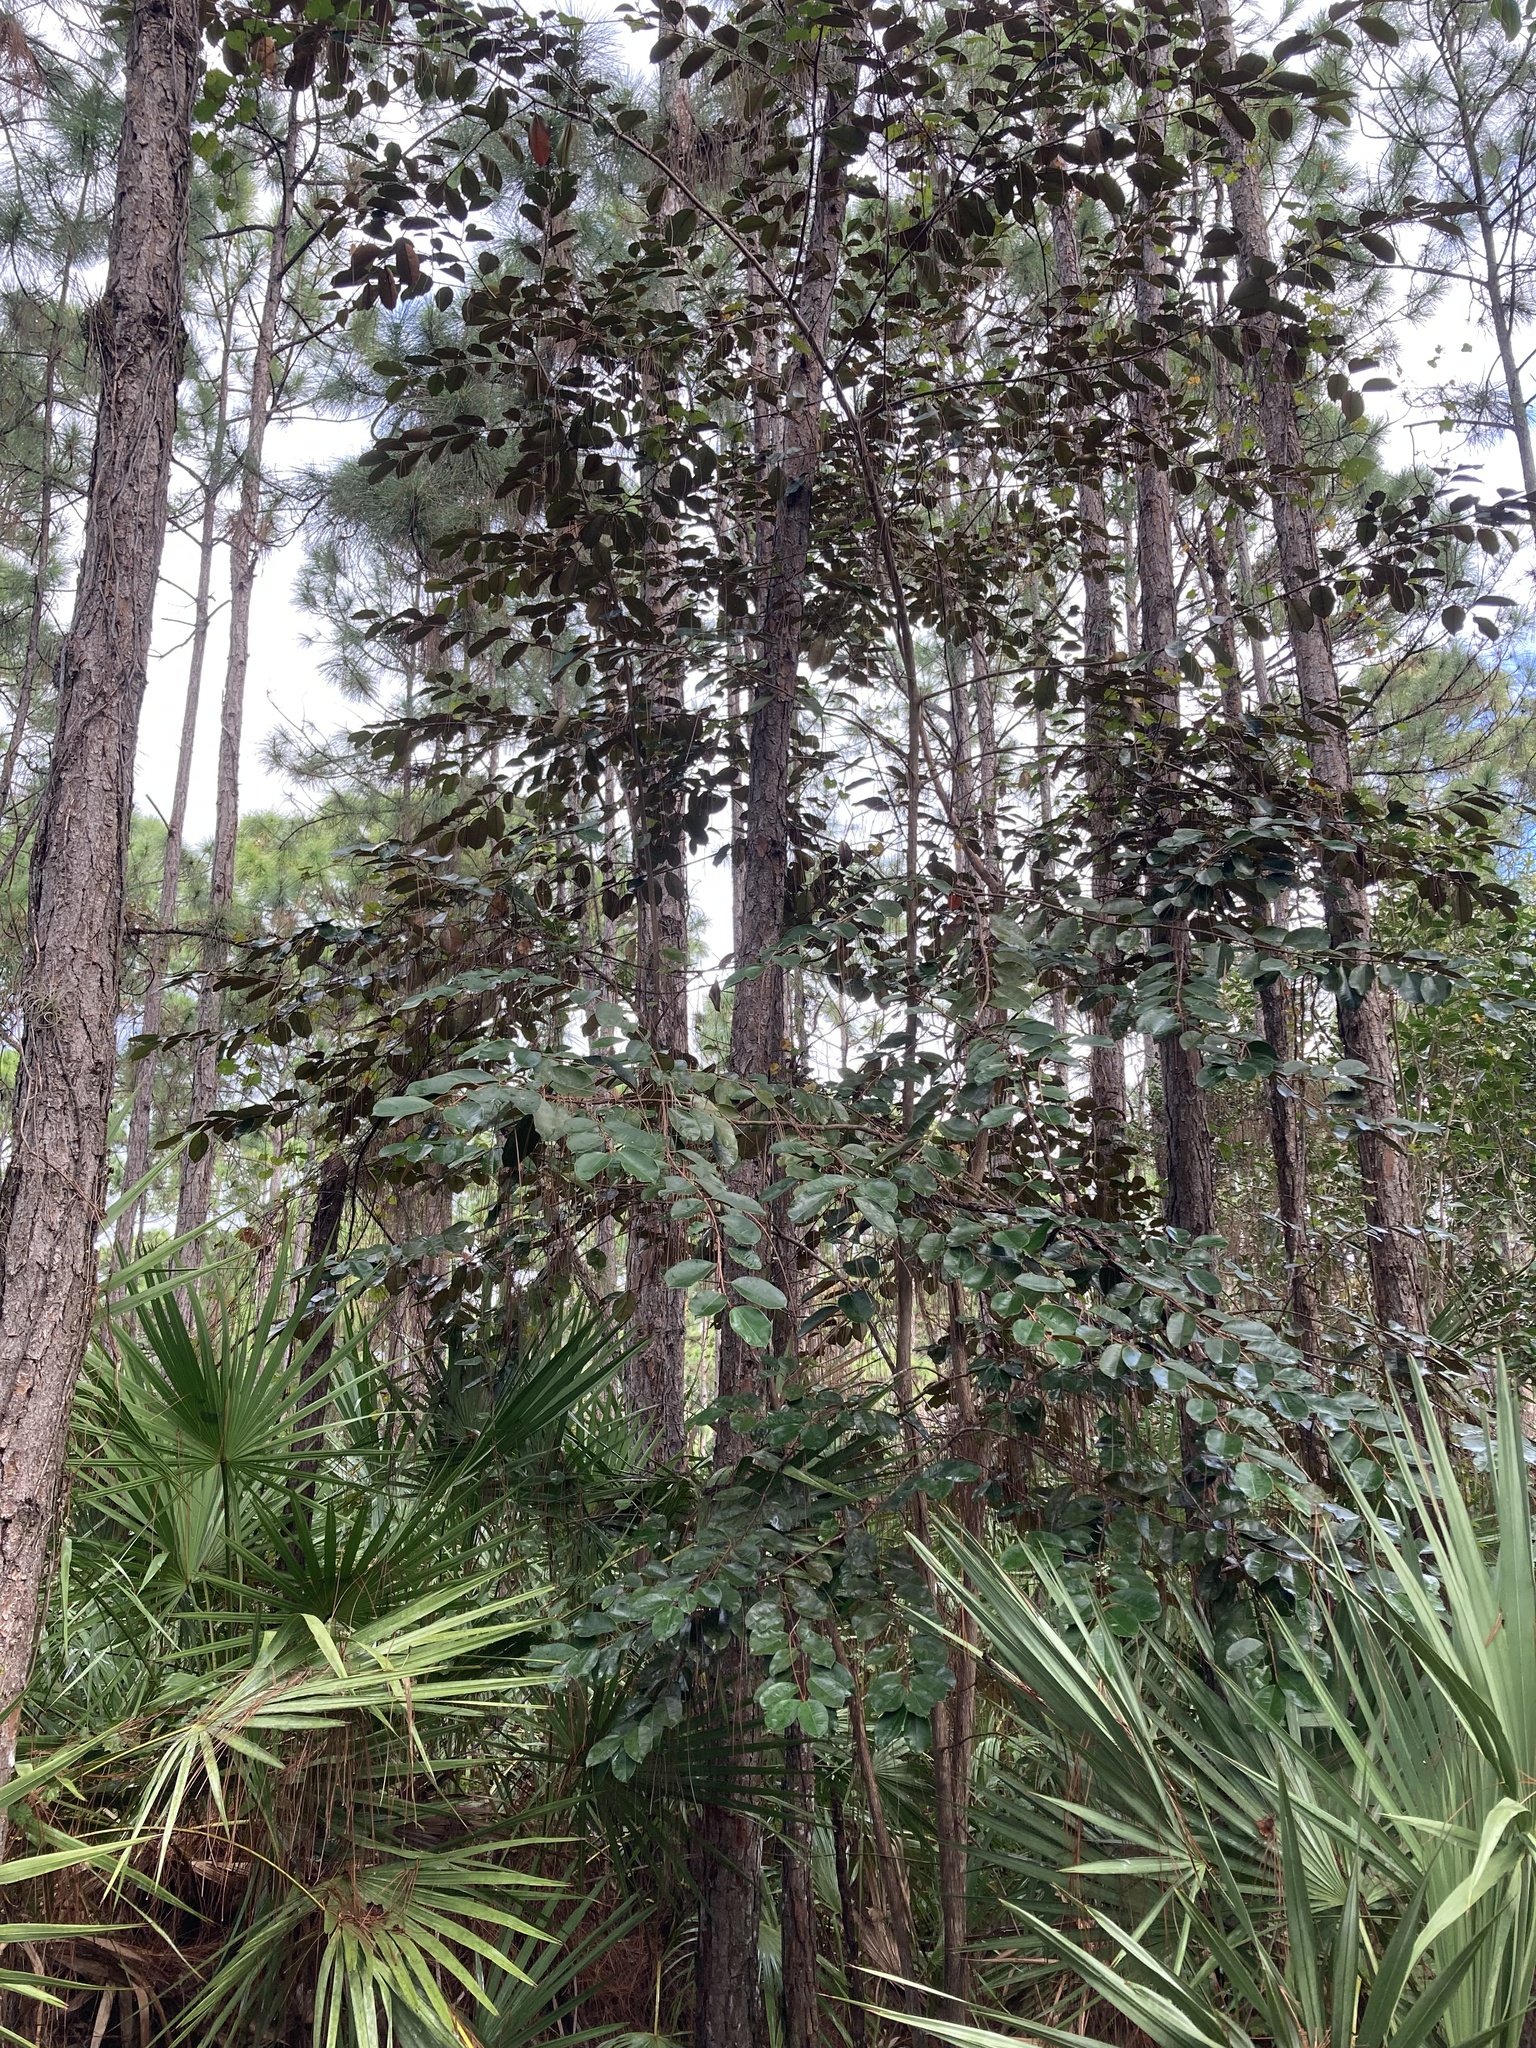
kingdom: Plantae
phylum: Tracheophyta
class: Magnoliopsida
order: Ericales
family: Sapotaceae
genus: Chrysophyllum
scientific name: Chrysophyllum oliviforme
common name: Satinleaf
